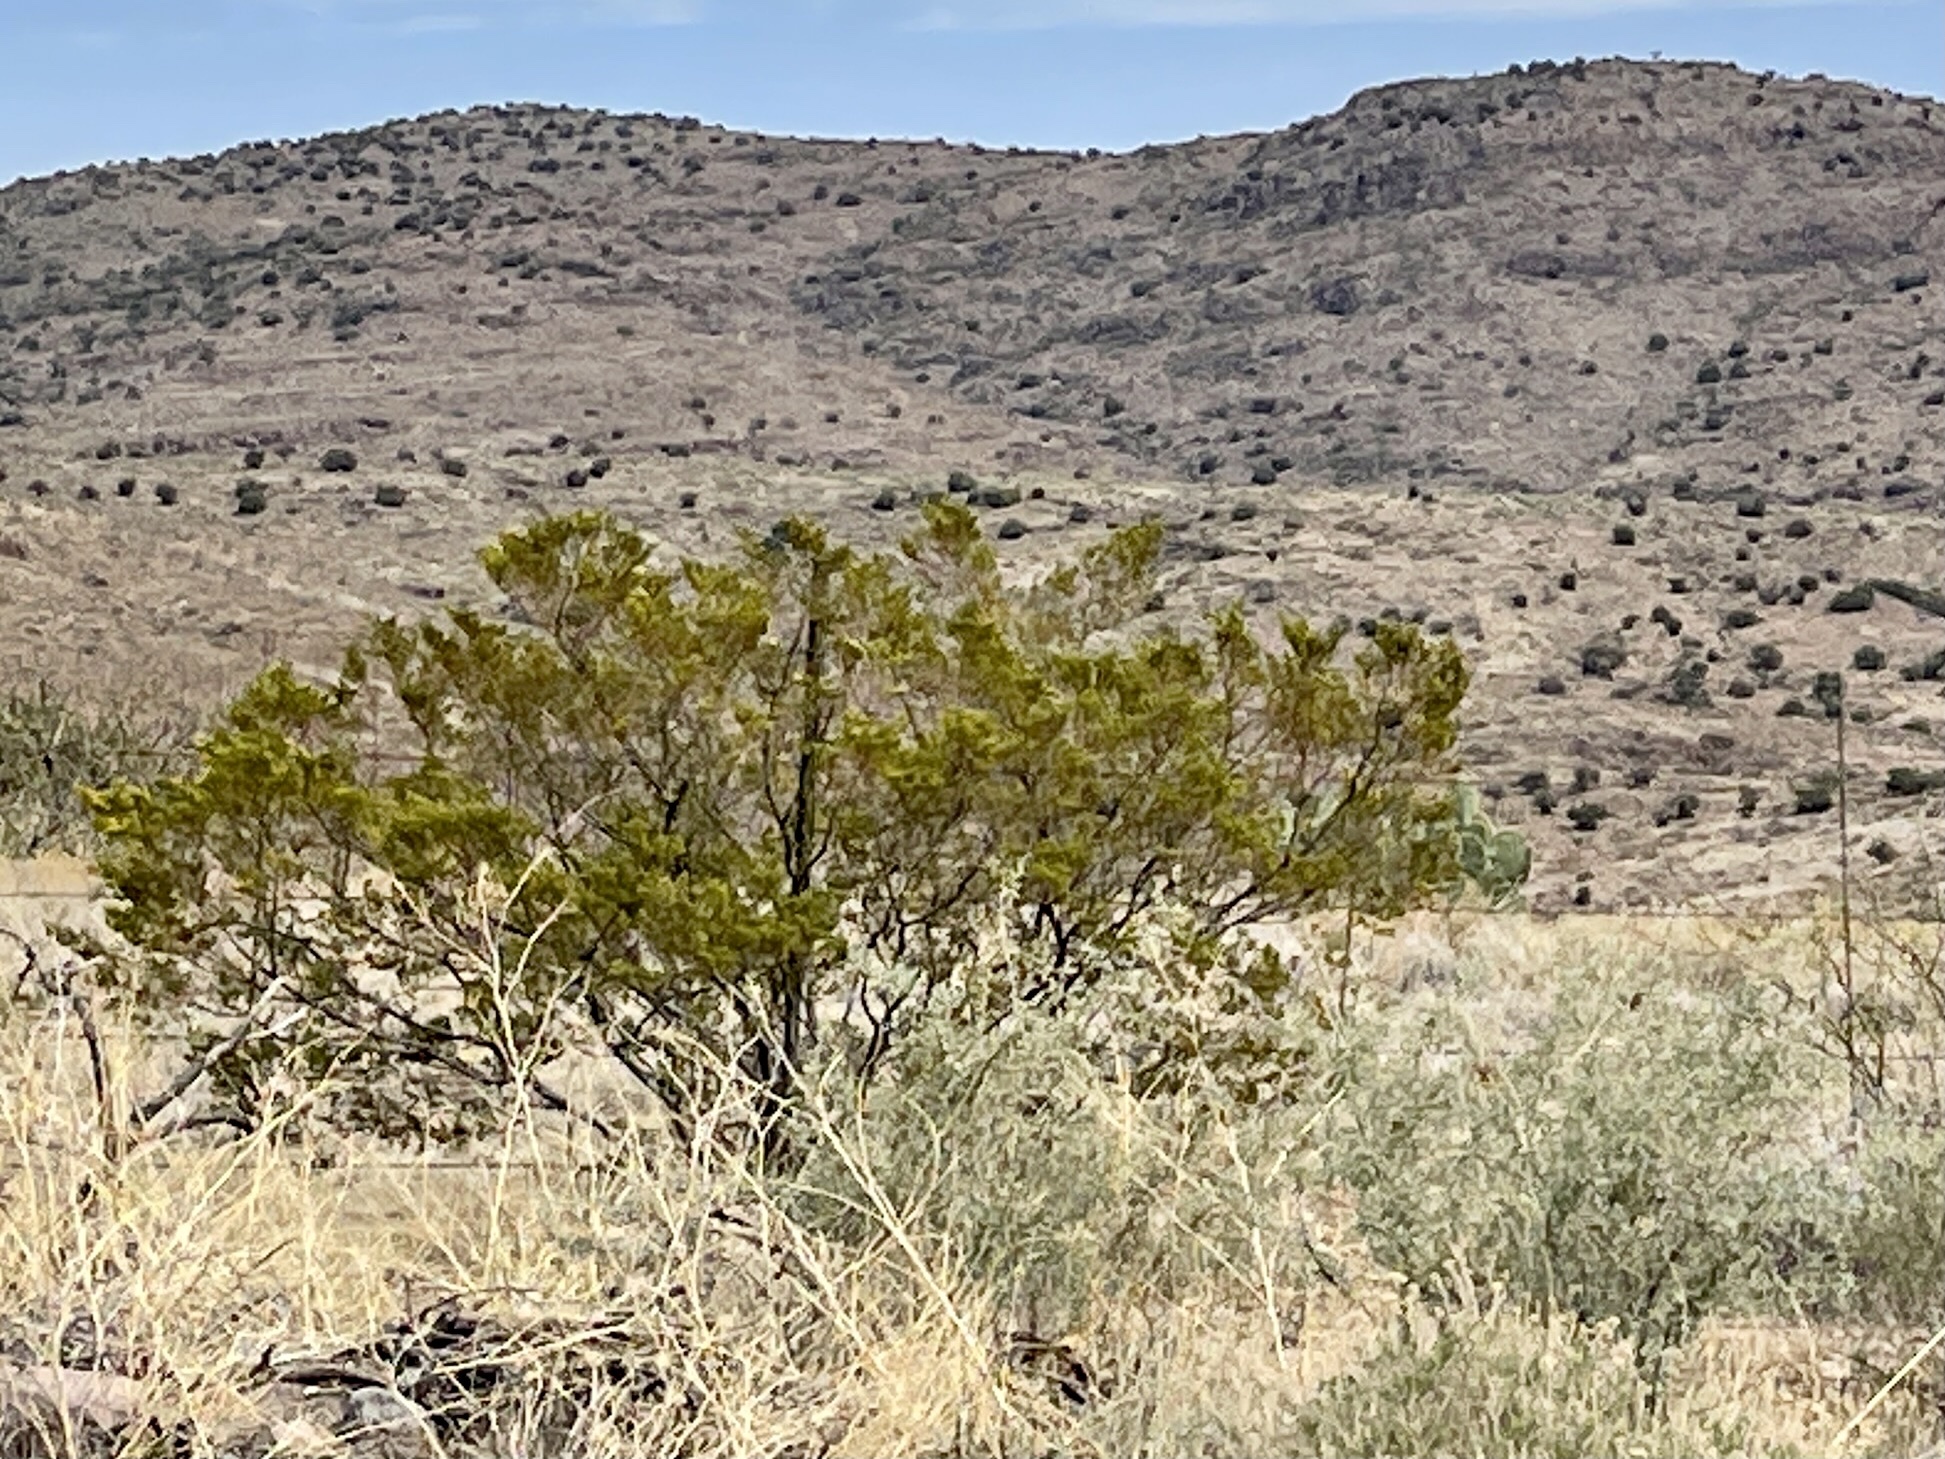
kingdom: Plantae
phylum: Tracheophyta
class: Magnoliopsida
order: Zygophyllales
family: Zygophyllaceae
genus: Larrea
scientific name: Larrea tridentata
